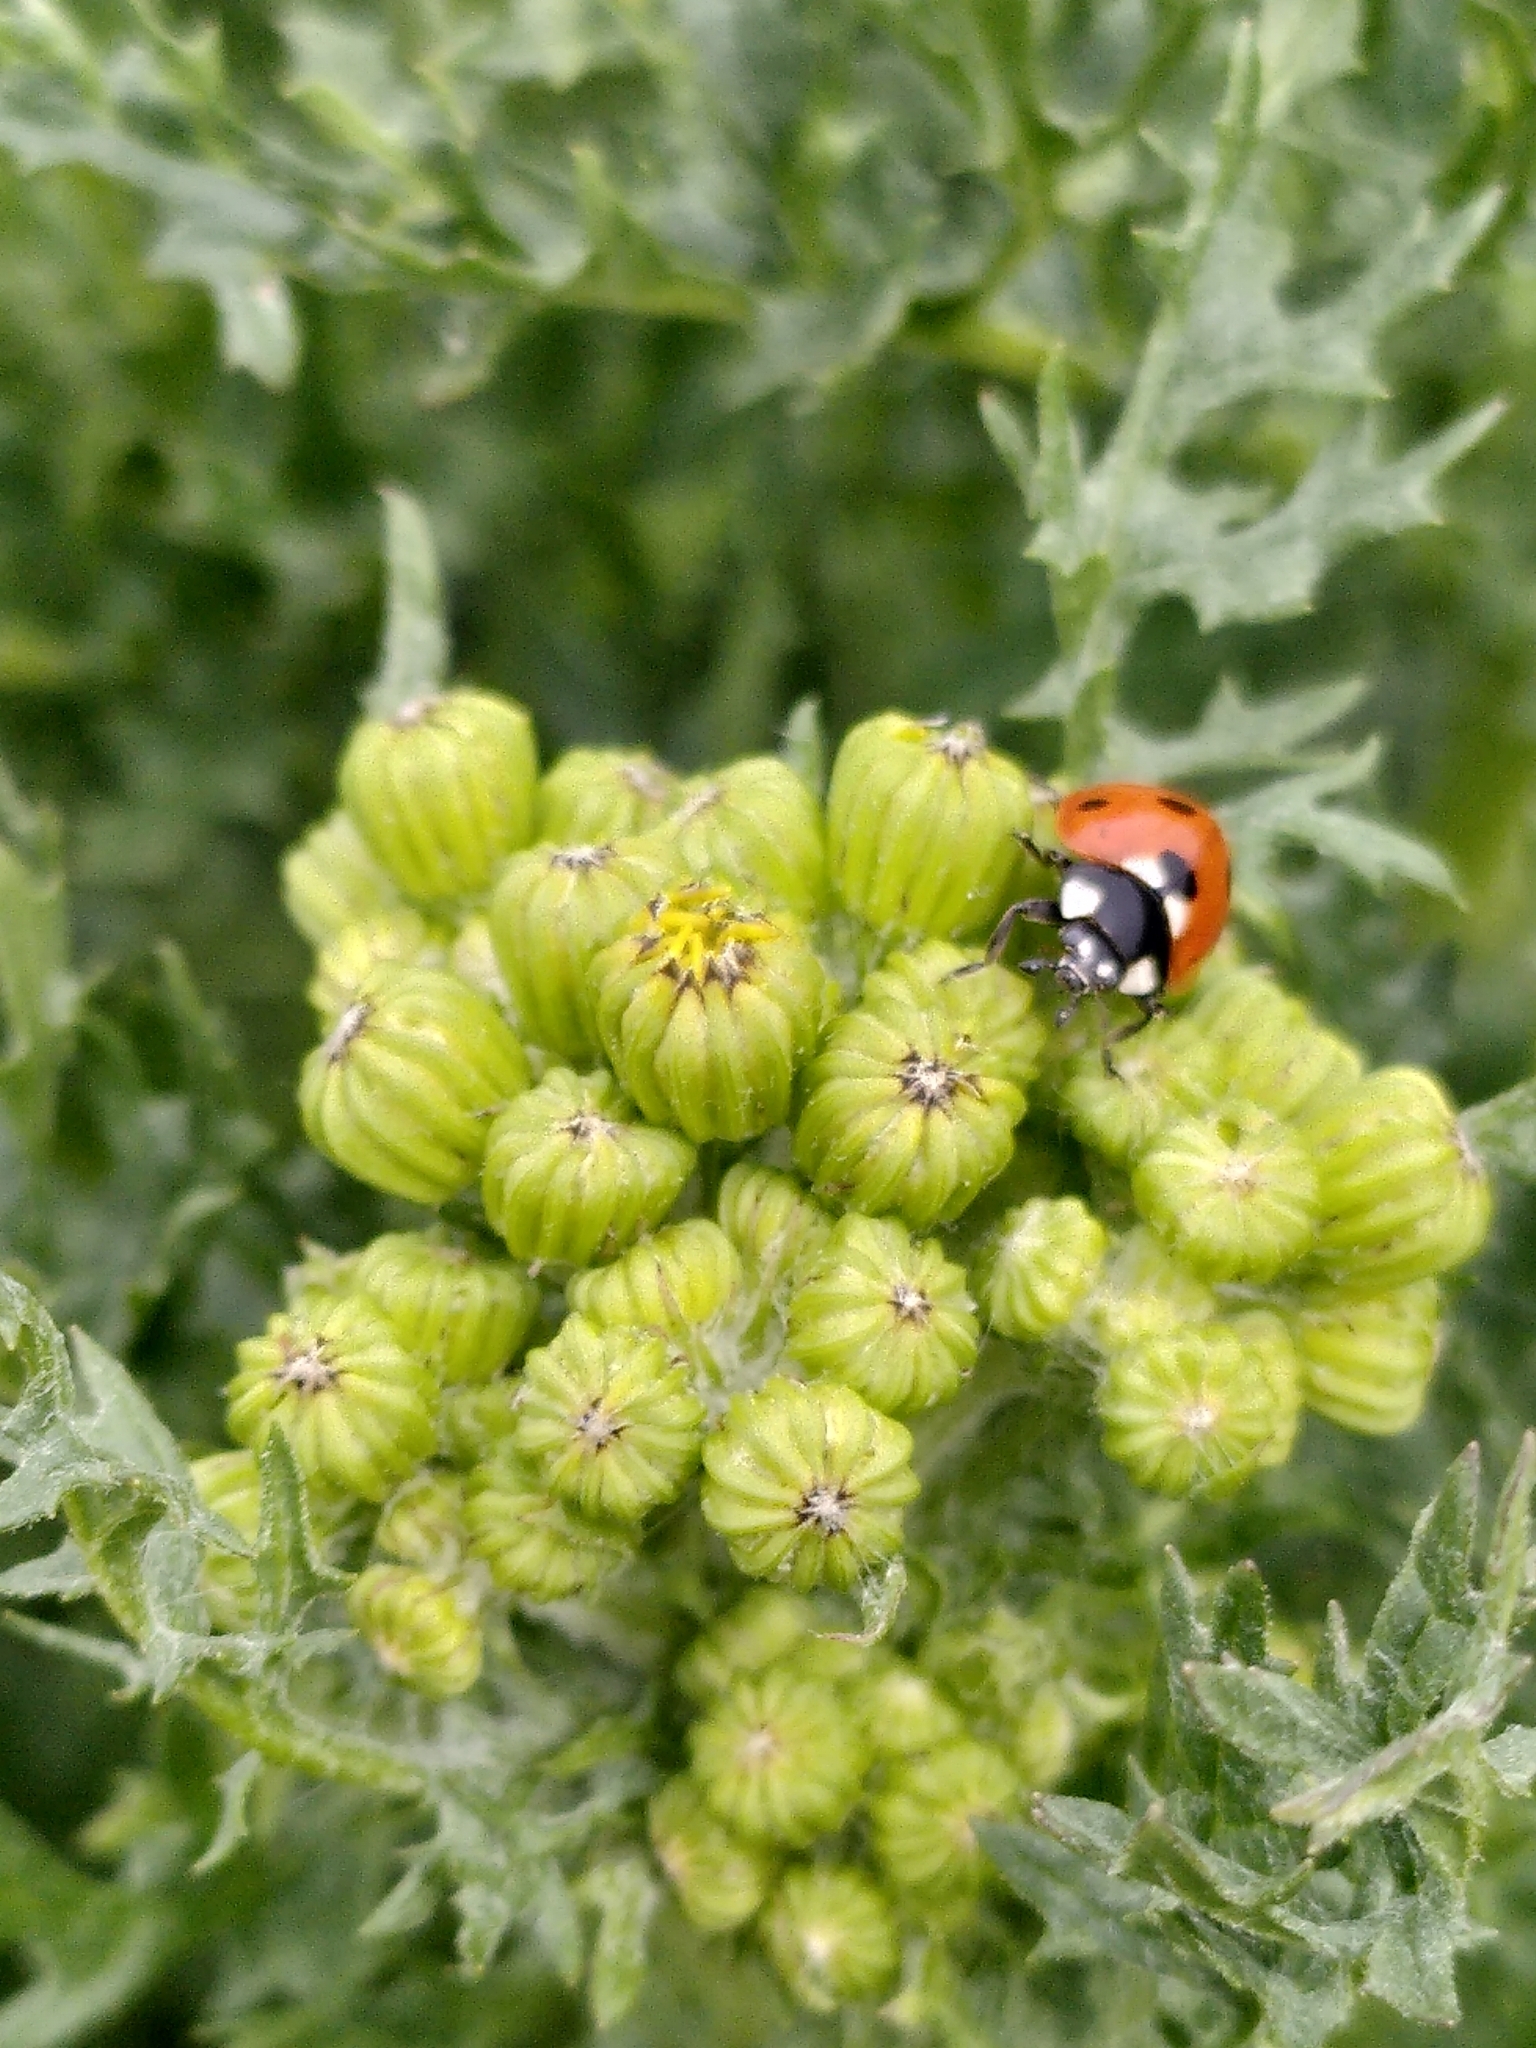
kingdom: Animalia
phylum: Arthropoda
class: Insecta
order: Coleoptera
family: Coccinellidae
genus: Coccinella
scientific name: Coccinella septempunctata
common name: Sevenspotted lady beetle
